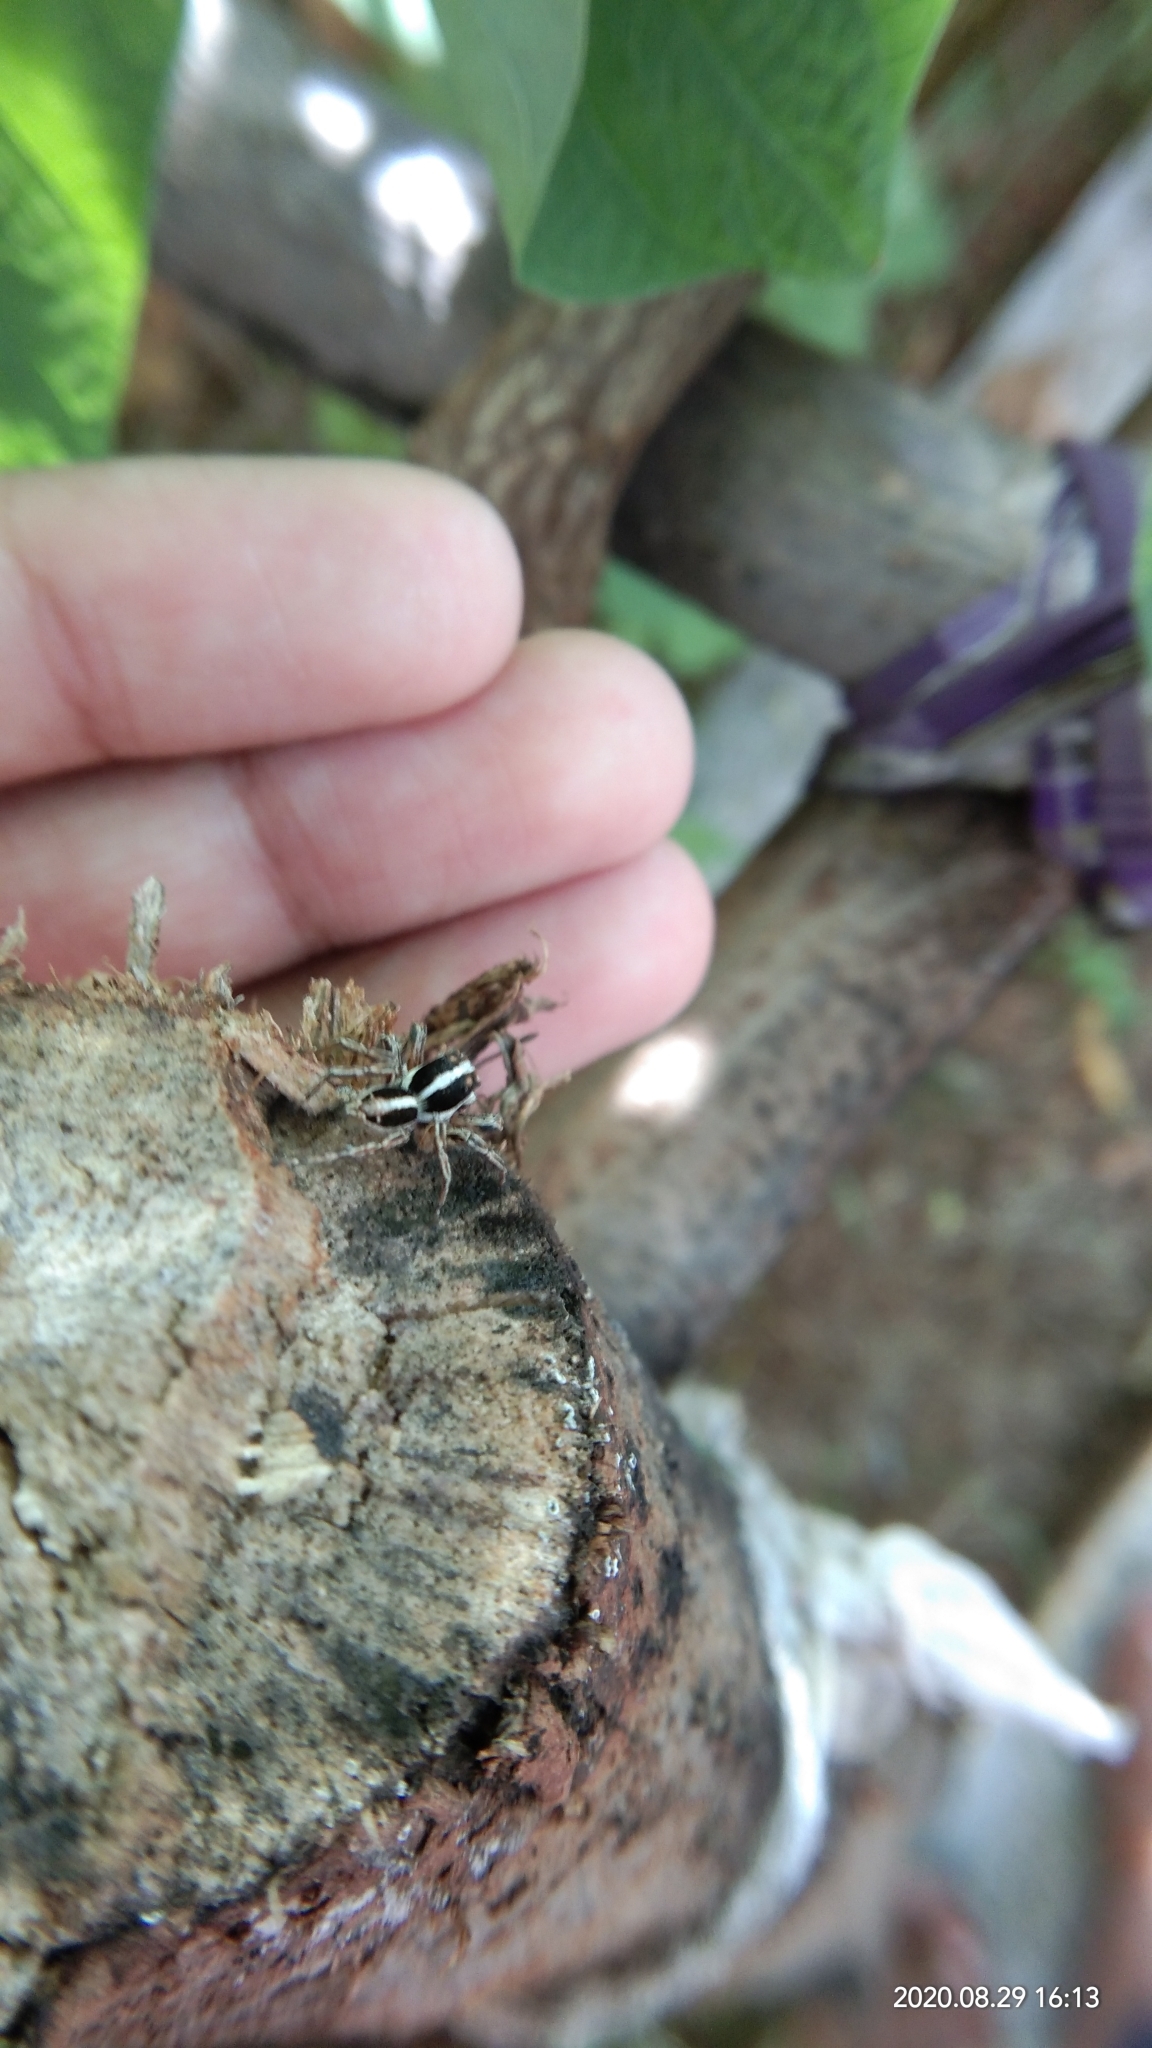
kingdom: Animalia
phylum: Arthropoda
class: Arachnida
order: Araneae
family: Salticidae
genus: Plexippus
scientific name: Plexippus paykulli
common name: Pantropical jumper
